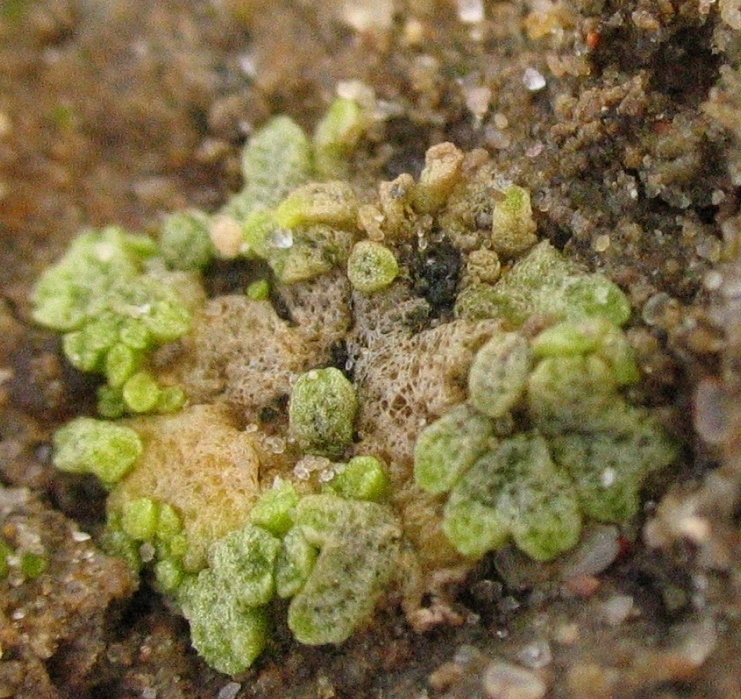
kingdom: Plantae
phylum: Marchantiophyta
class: Marchantiopsida
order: Marchantiales
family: Ricciaceae
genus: Riccia
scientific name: Riccia cavernosa
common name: Cavernous crystalwort
